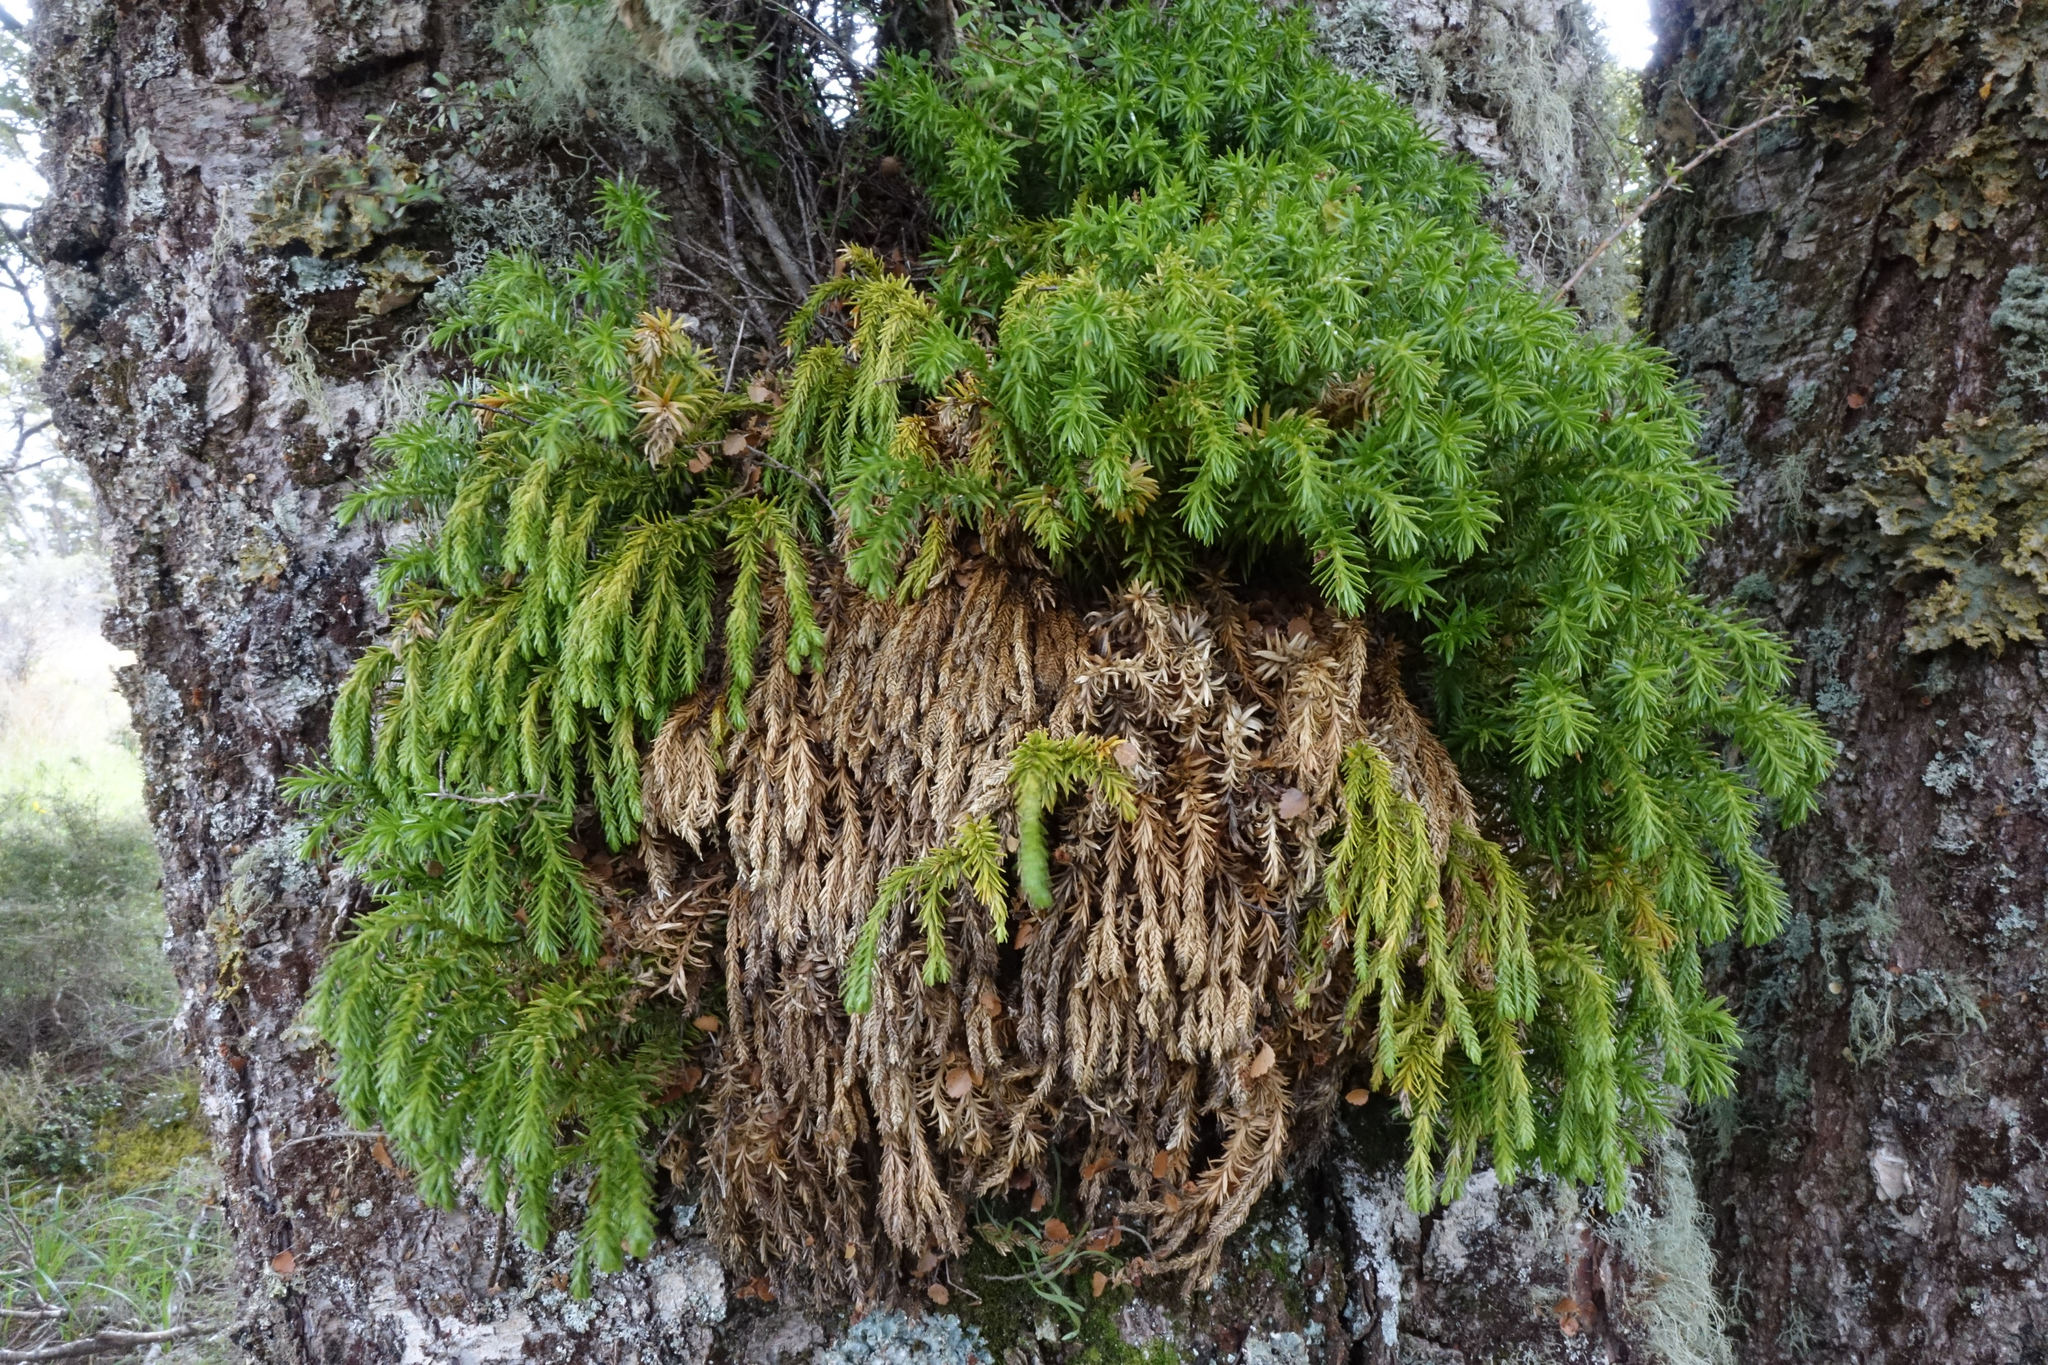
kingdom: Plantae
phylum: Tracheophyta
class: Lycopodiopsida
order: Lycopodiales
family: Lycopodiaceae
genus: Phlegmariurus
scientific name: Phlegmariurus varius
